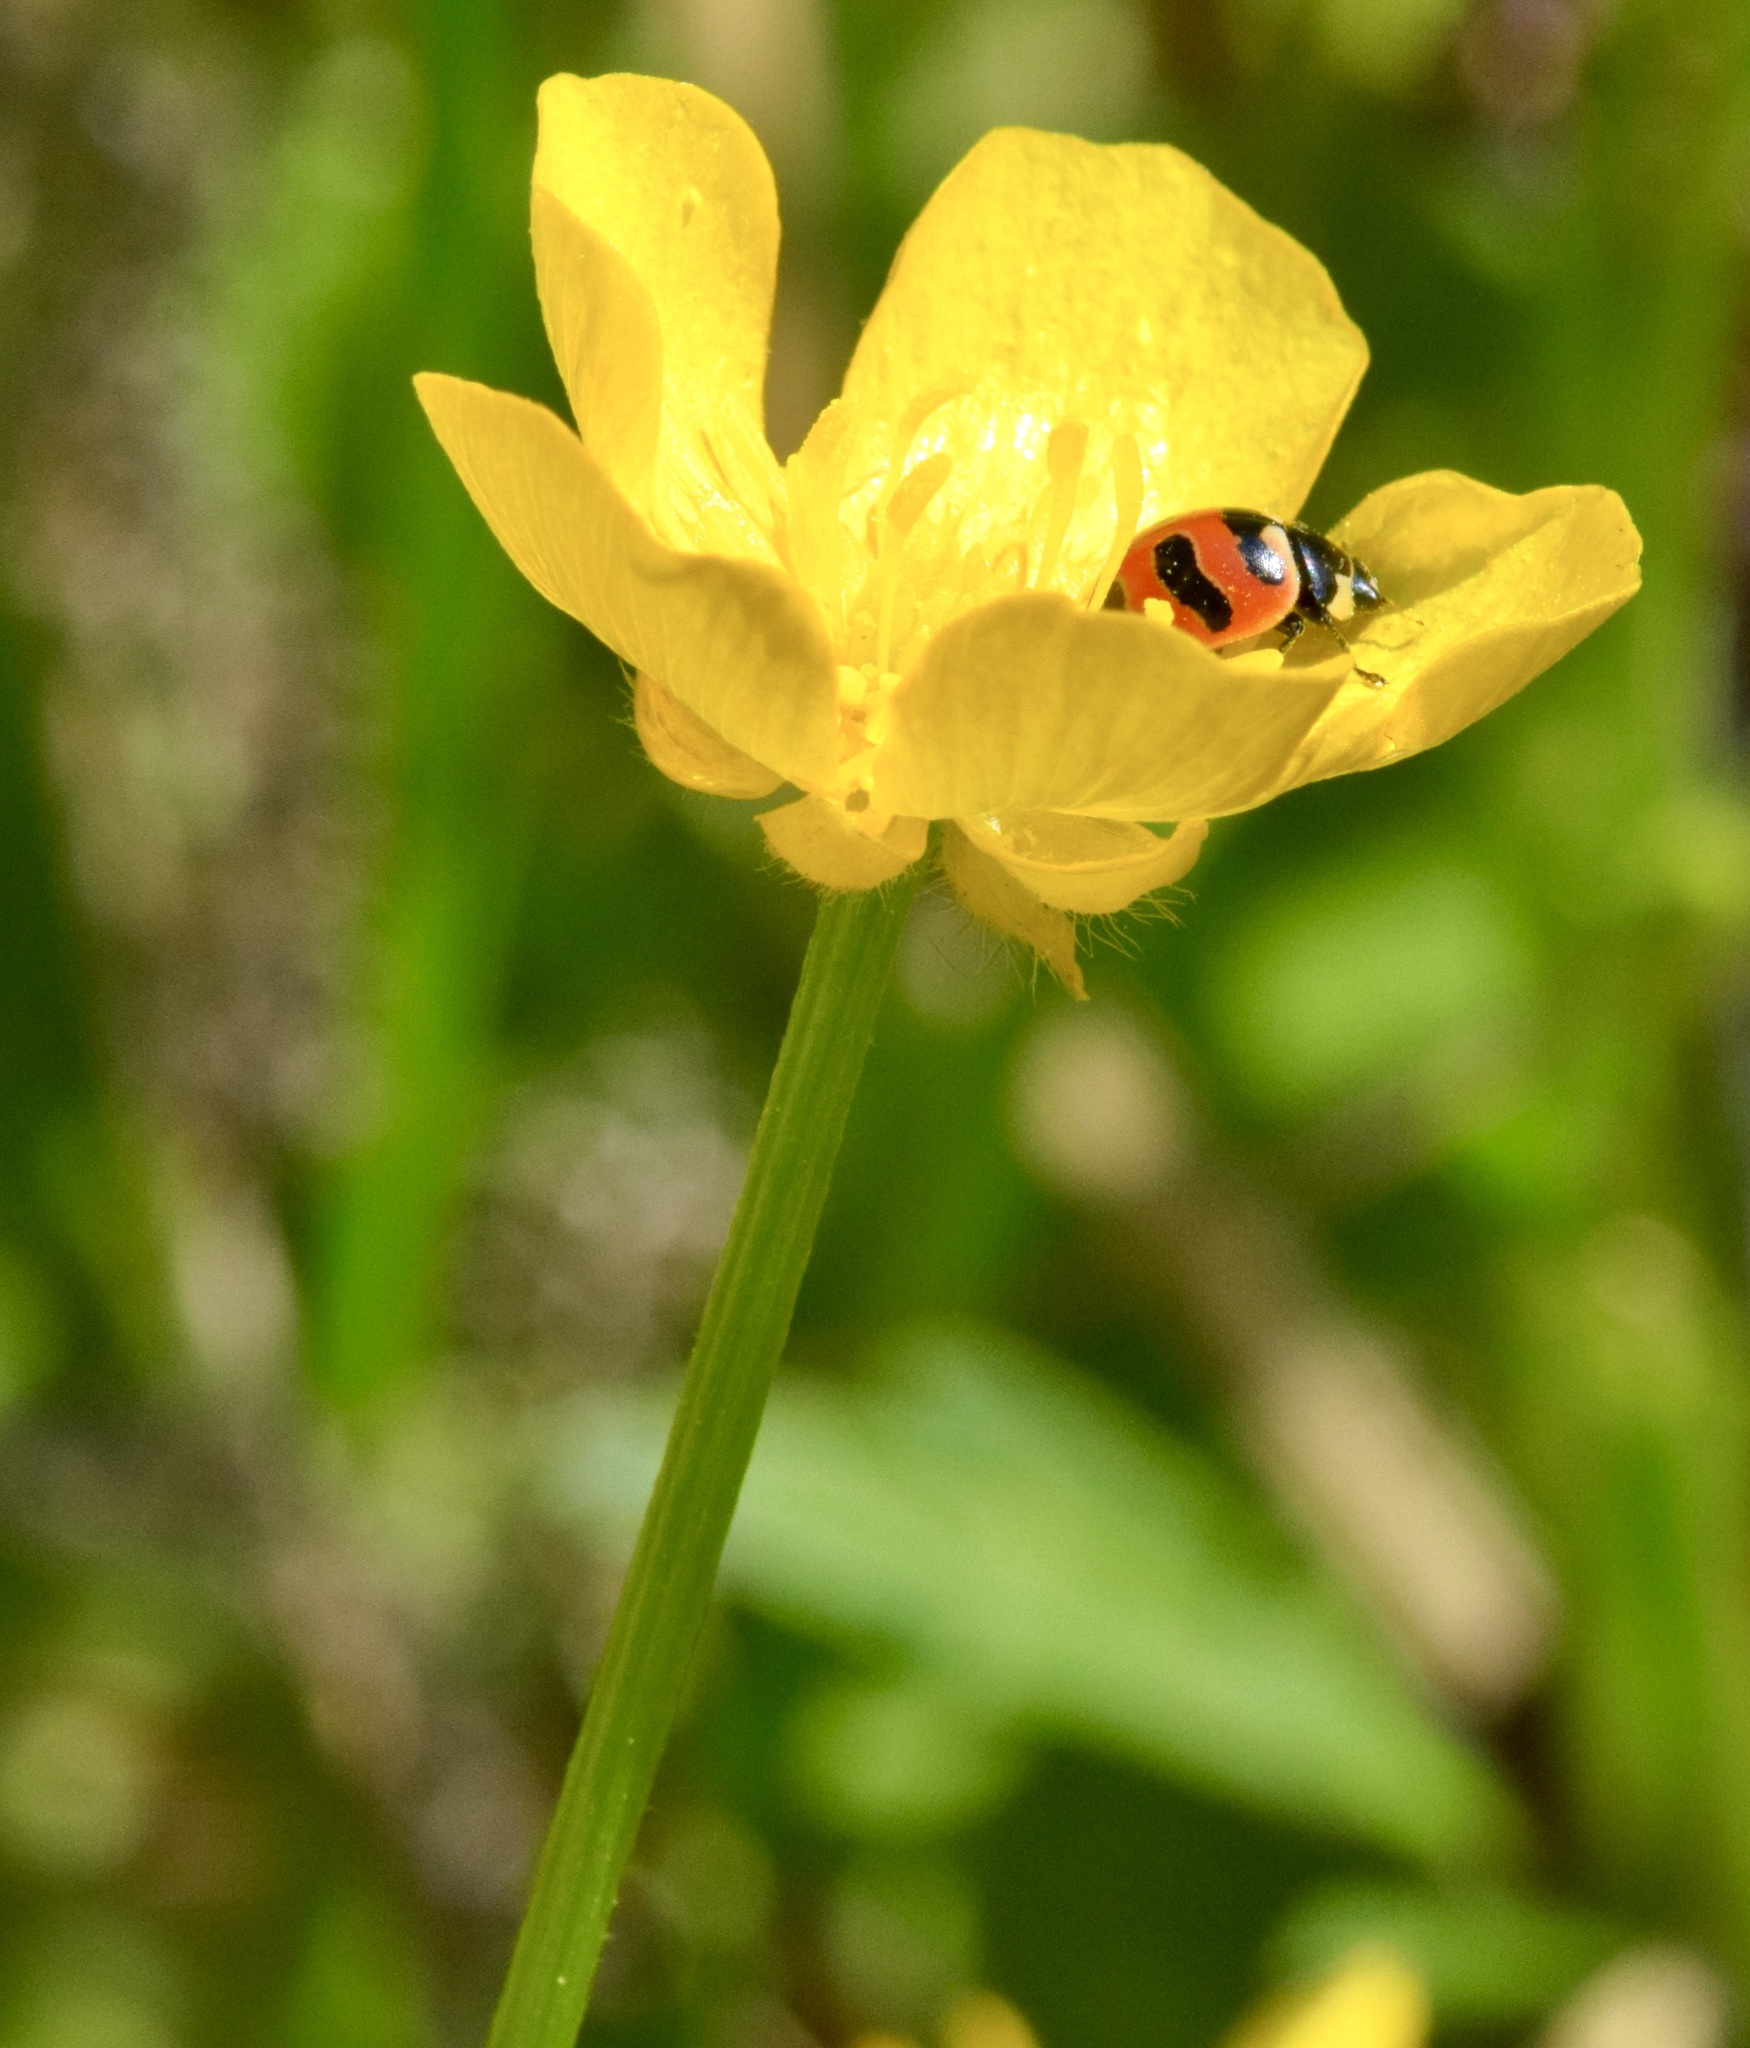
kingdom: Animalia
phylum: Arthropoda
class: Insecta
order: Coleoptera
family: Coccinellidae
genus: Coccinella
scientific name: Coccinella trifasciata
